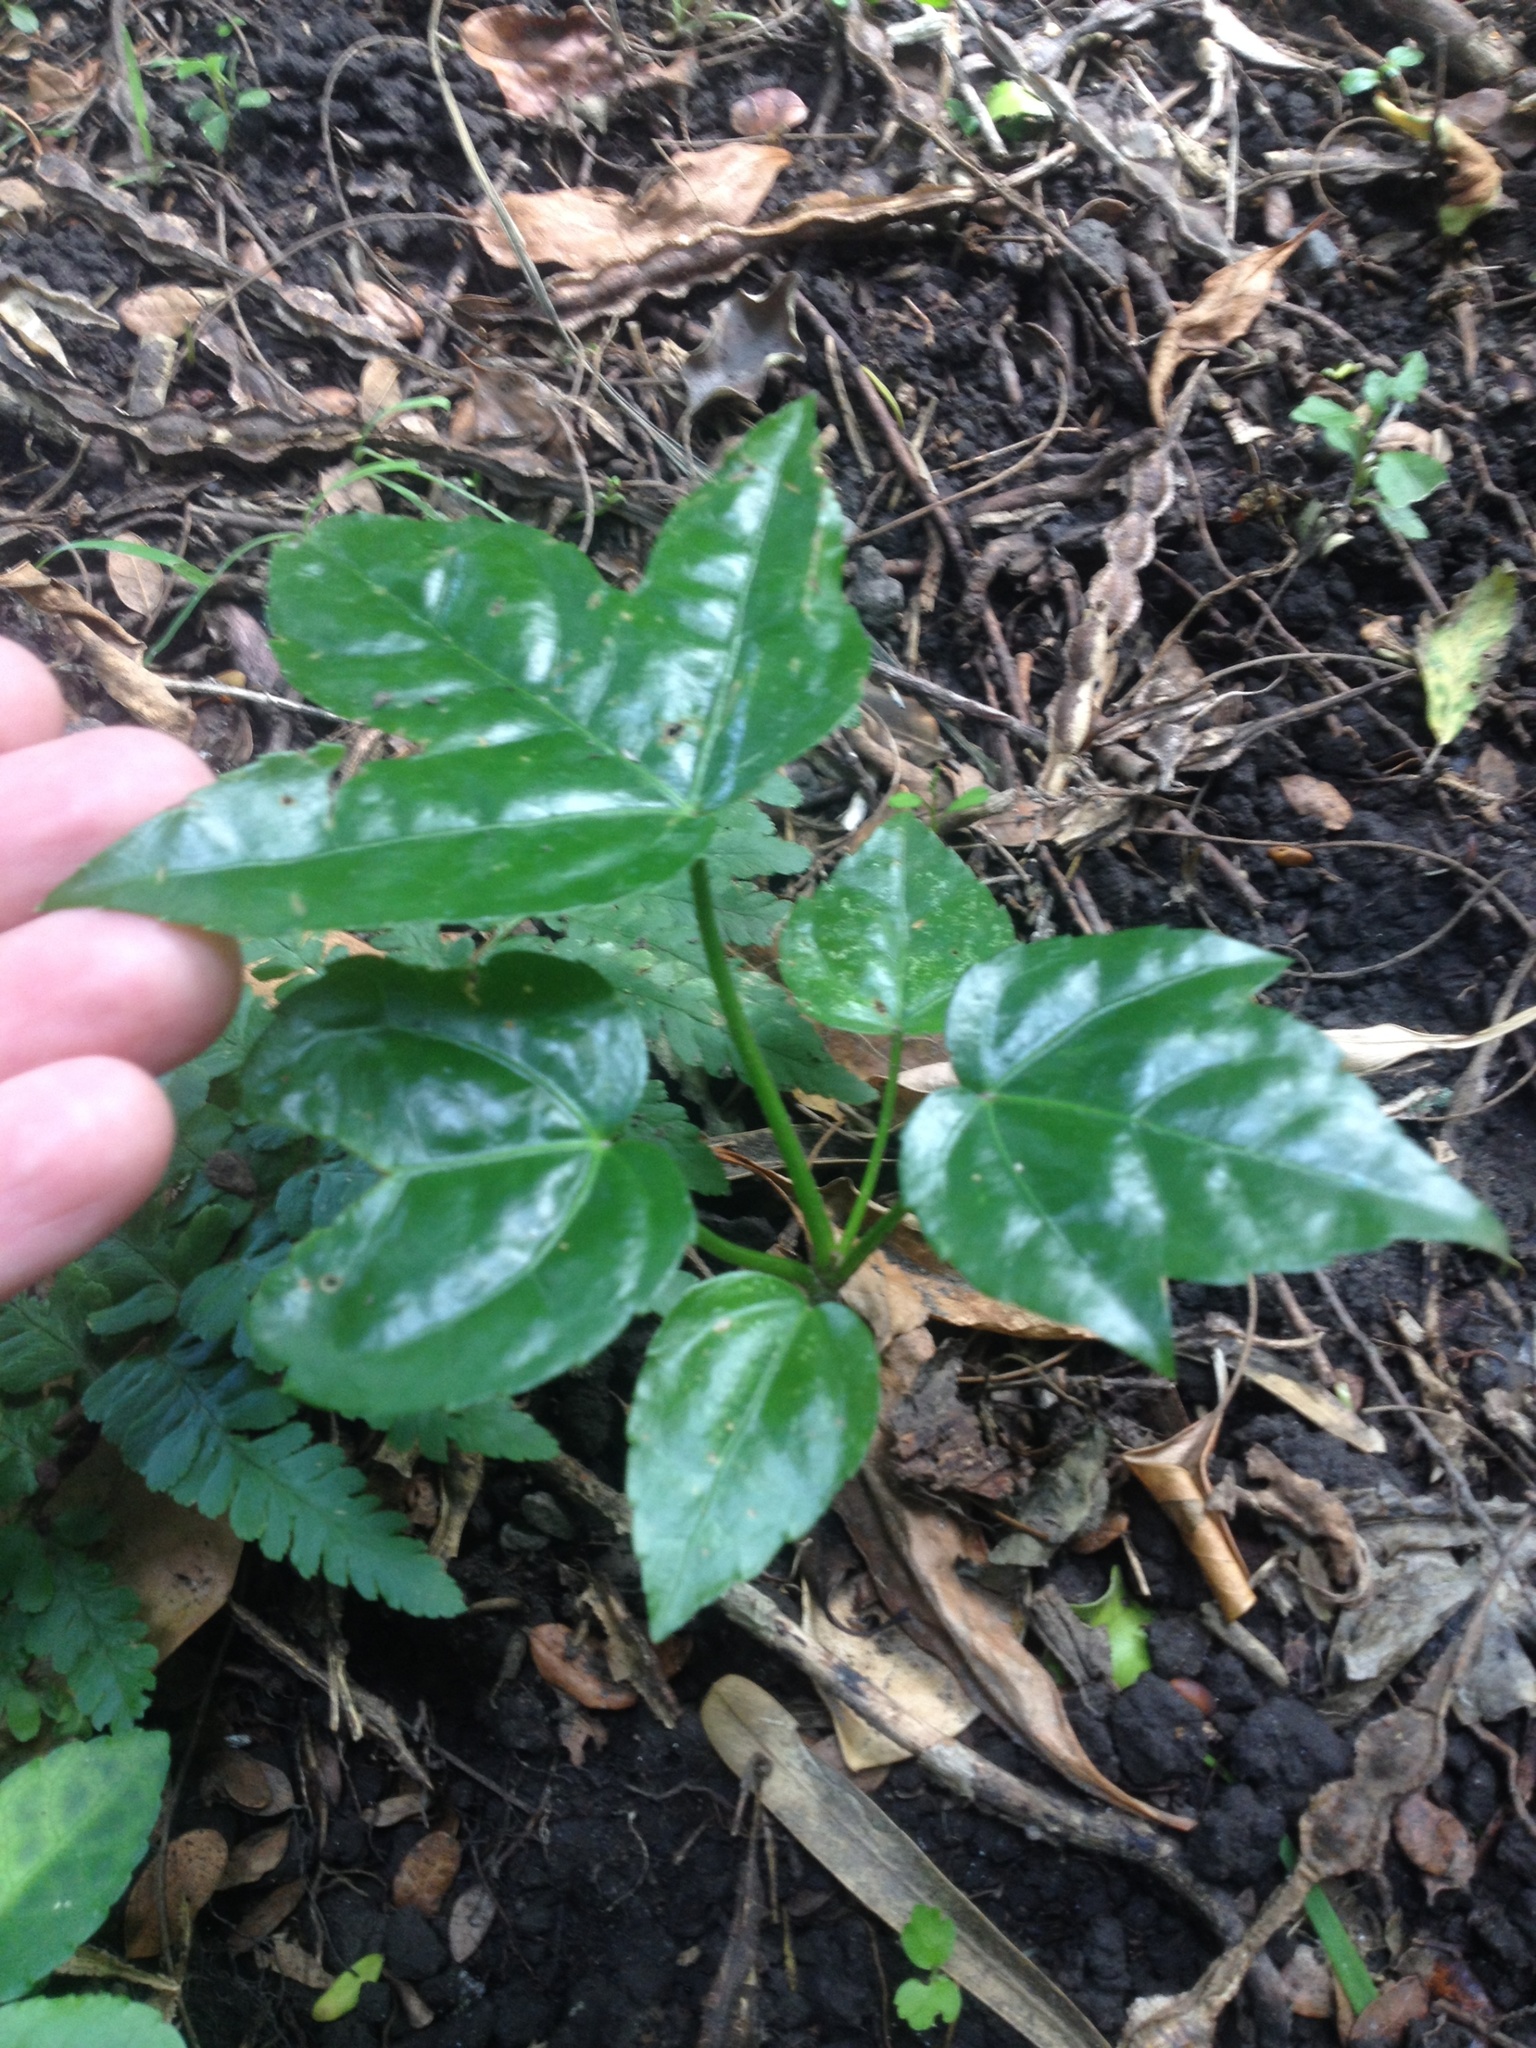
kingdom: Plantae
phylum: Tracheophyta
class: Magnoliopsida
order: Apiales
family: Araliaceae
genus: Fatsia
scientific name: Fatsia japonica
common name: Fatsia
